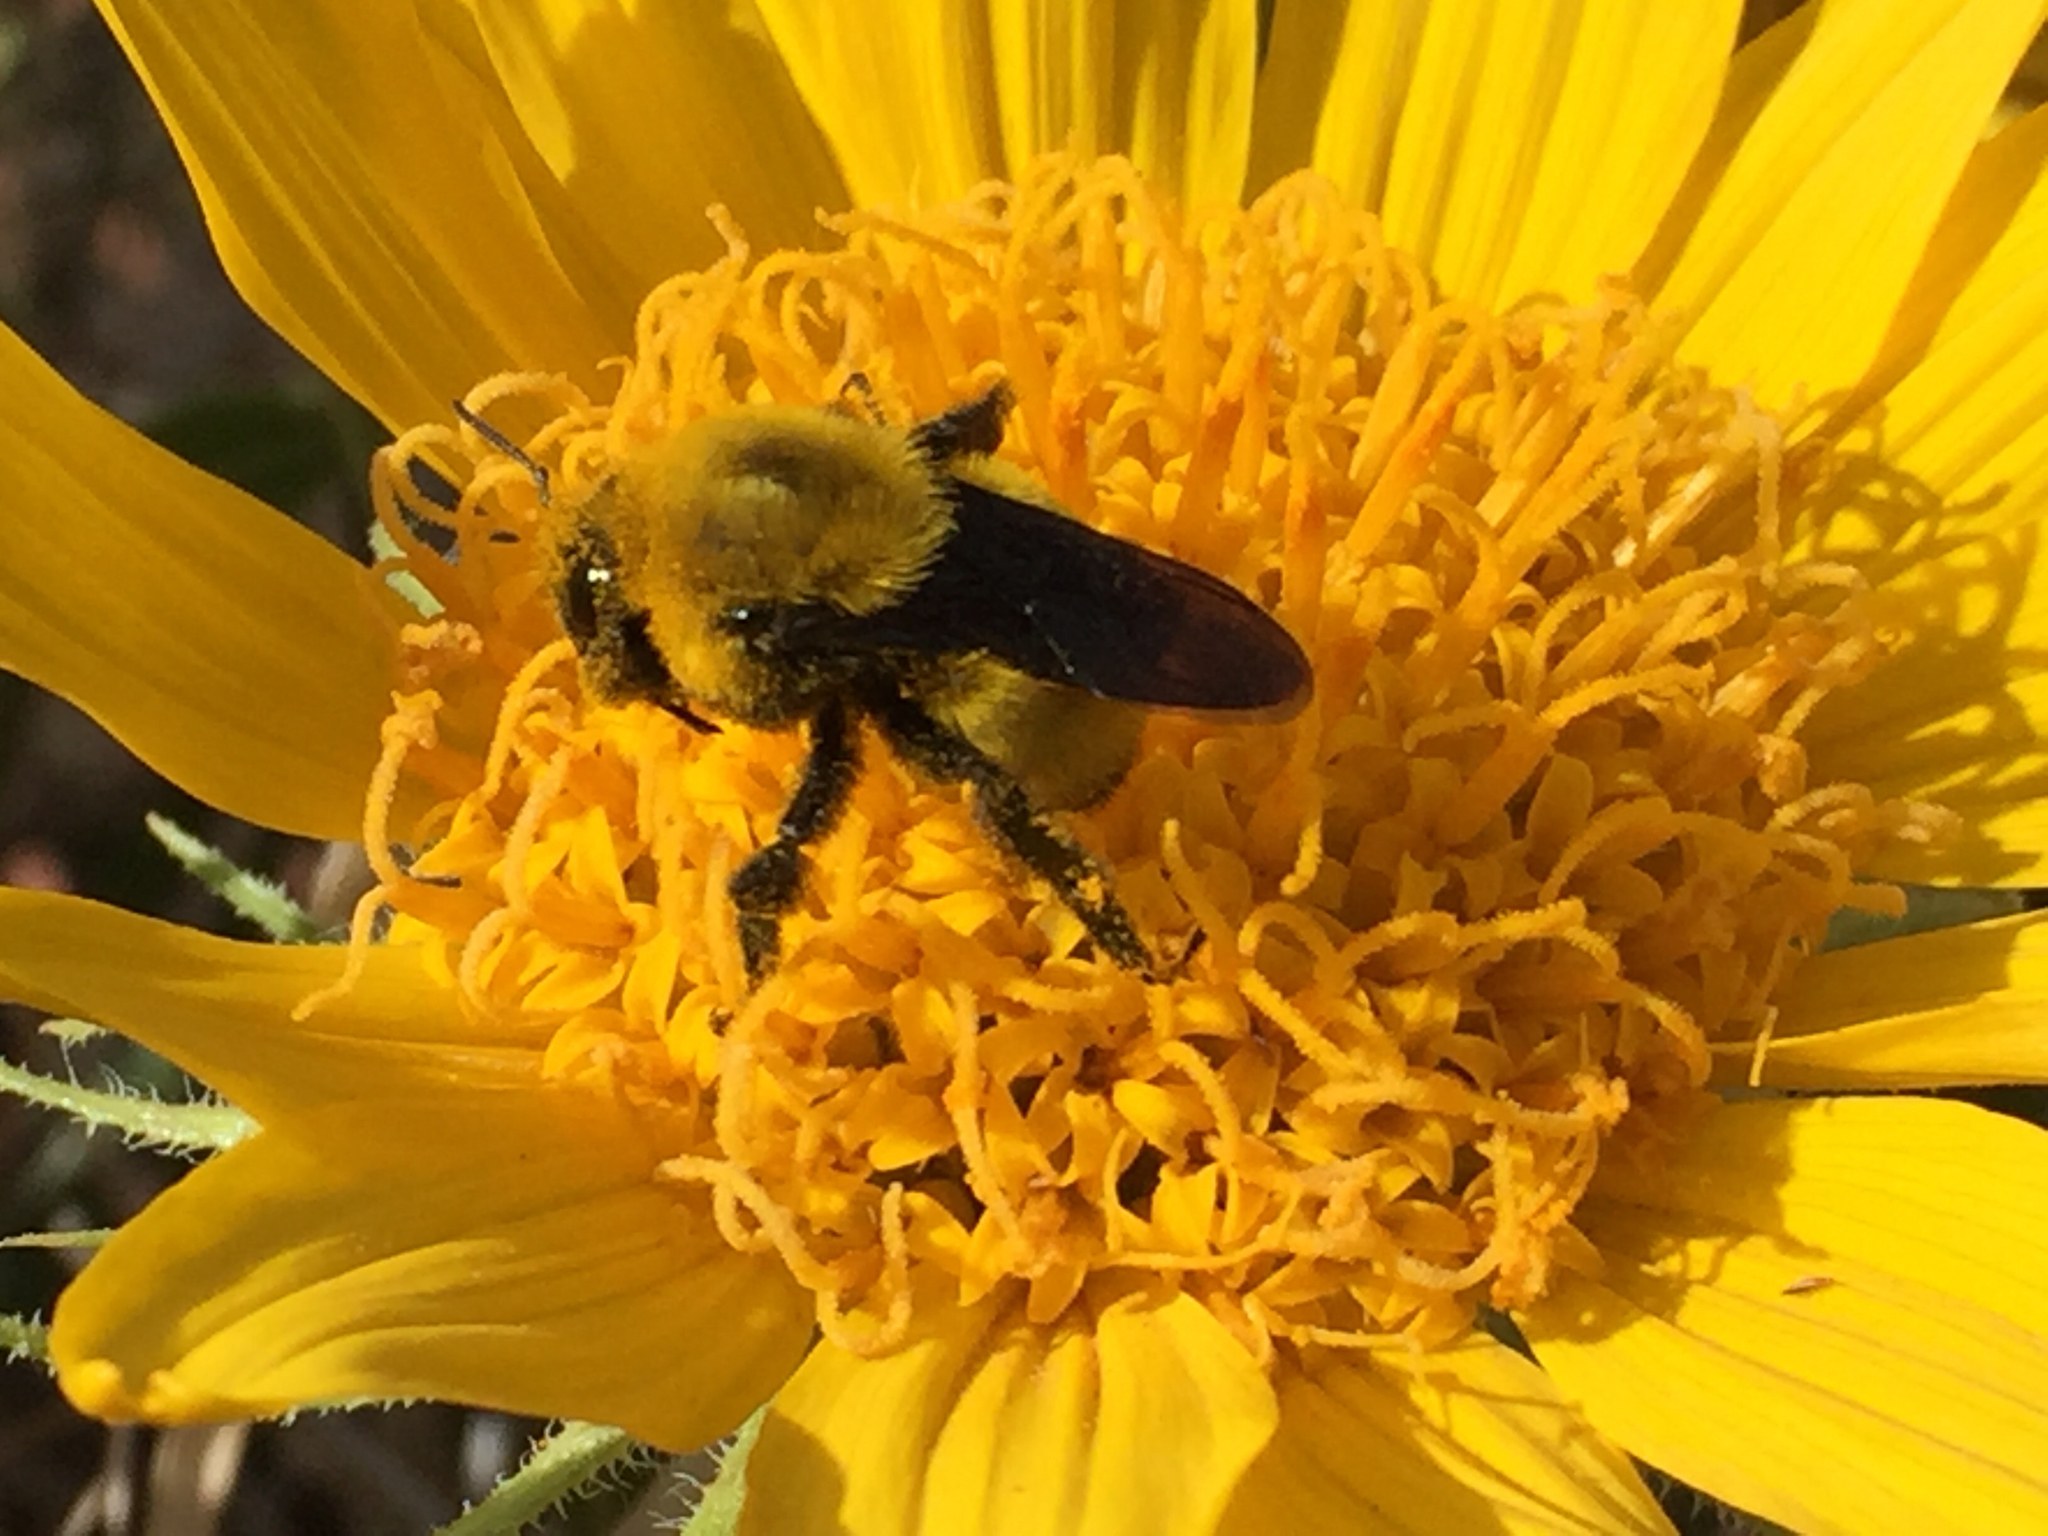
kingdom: Animalia
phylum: Arthropoda
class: Insecta
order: Hymenoptera
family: Apidae
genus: Bombus
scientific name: Bombus morrisoni
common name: Morrison bumble bee
